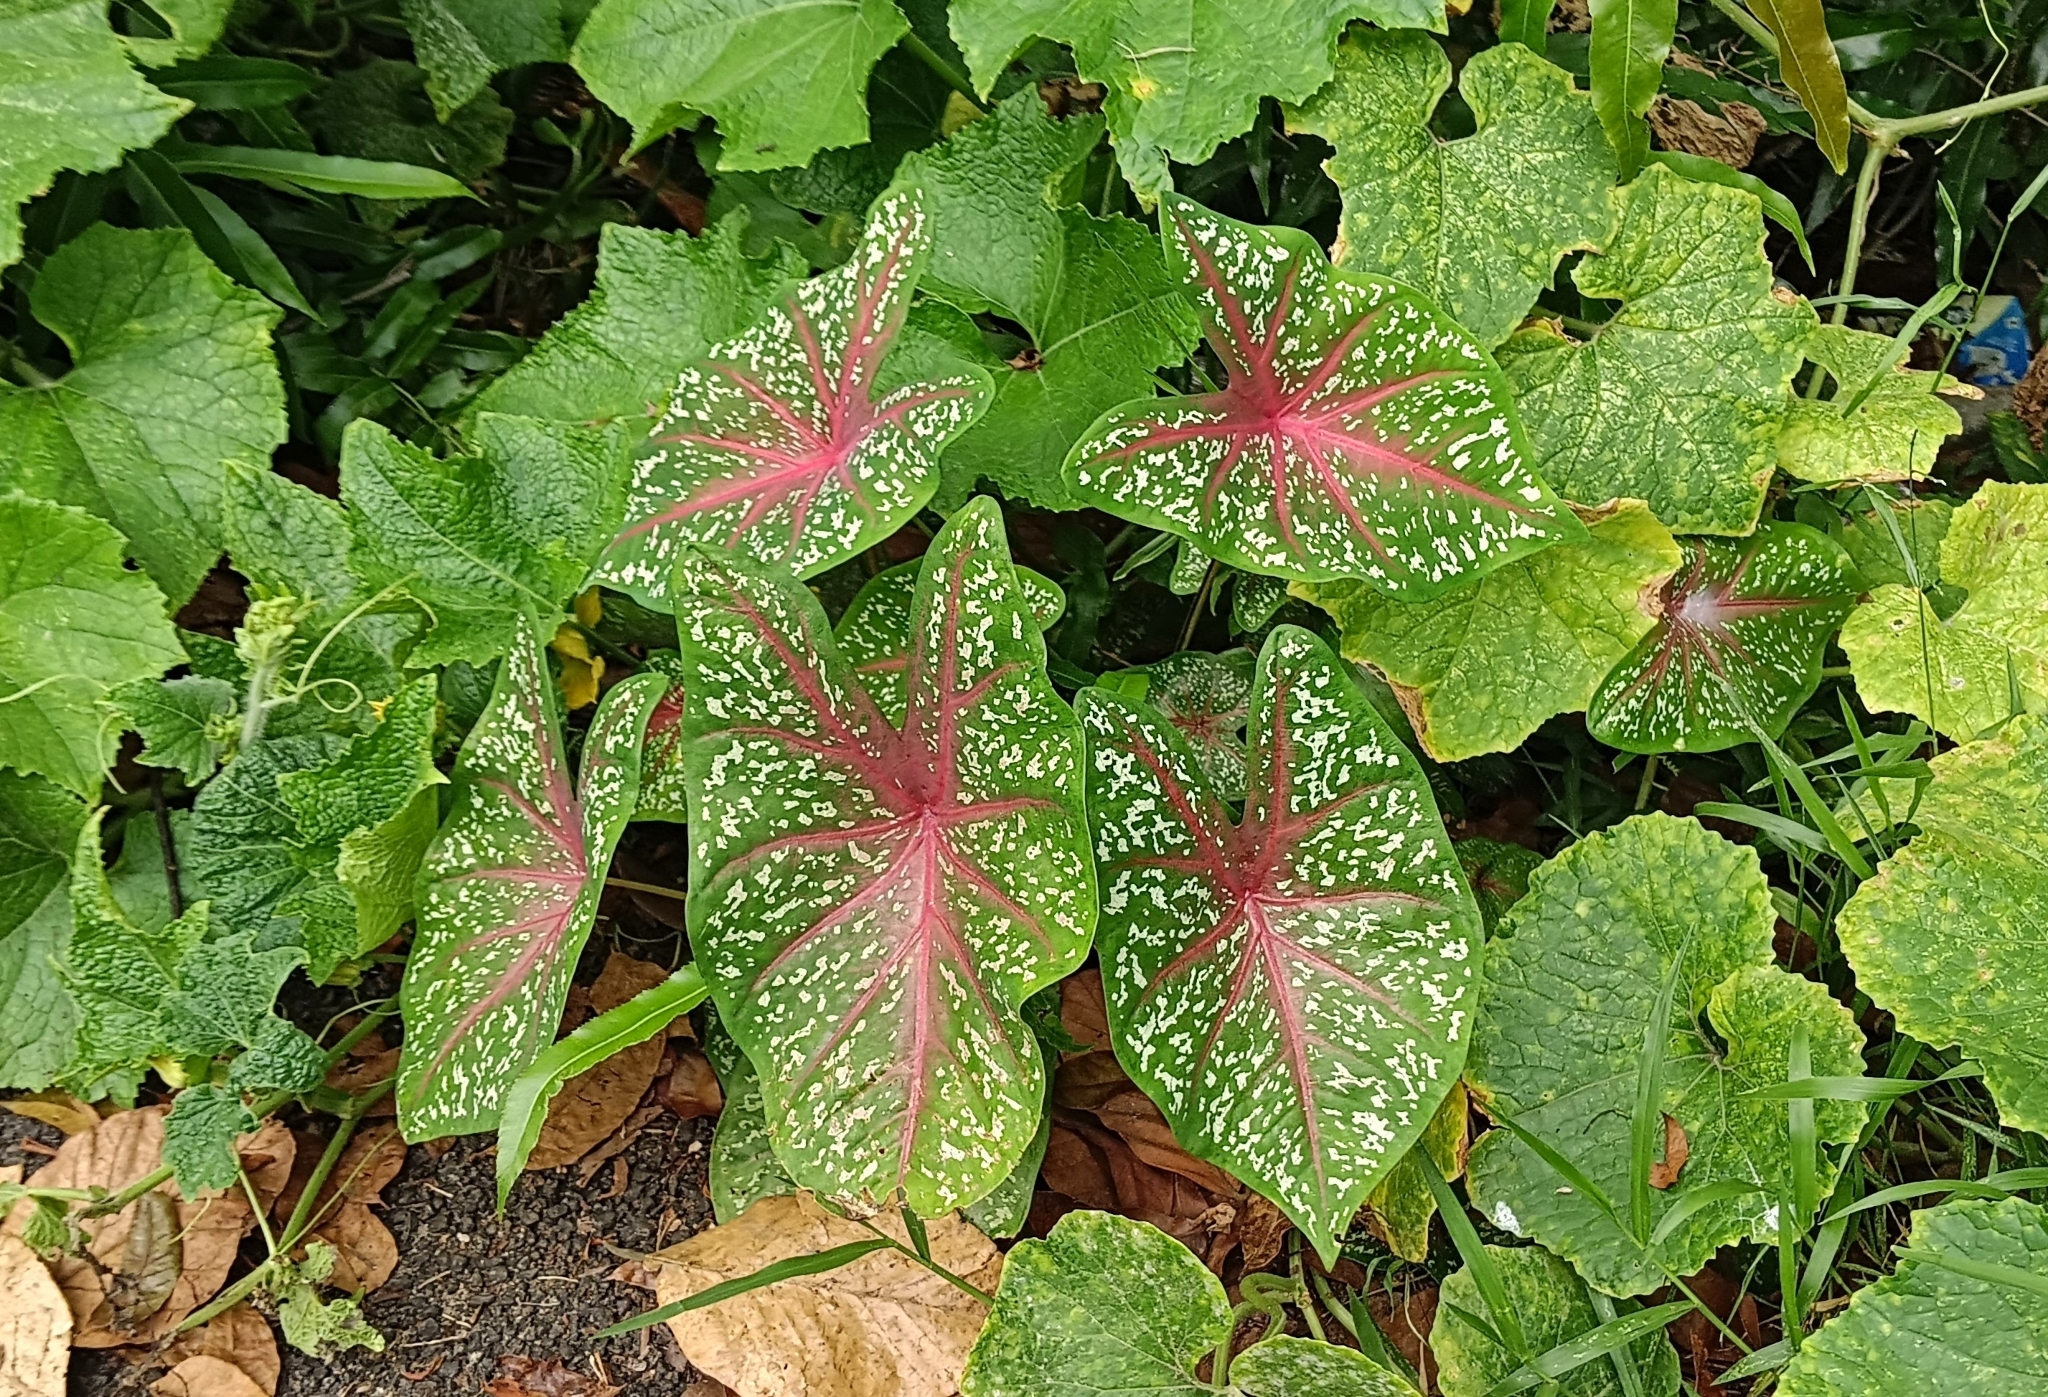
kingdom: Plantae
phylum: Tracheophyta
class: Liliopsida
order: Alismatales
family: Araceae
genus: Caladium
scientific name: Caladium bicolor
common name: Artist's pallet
